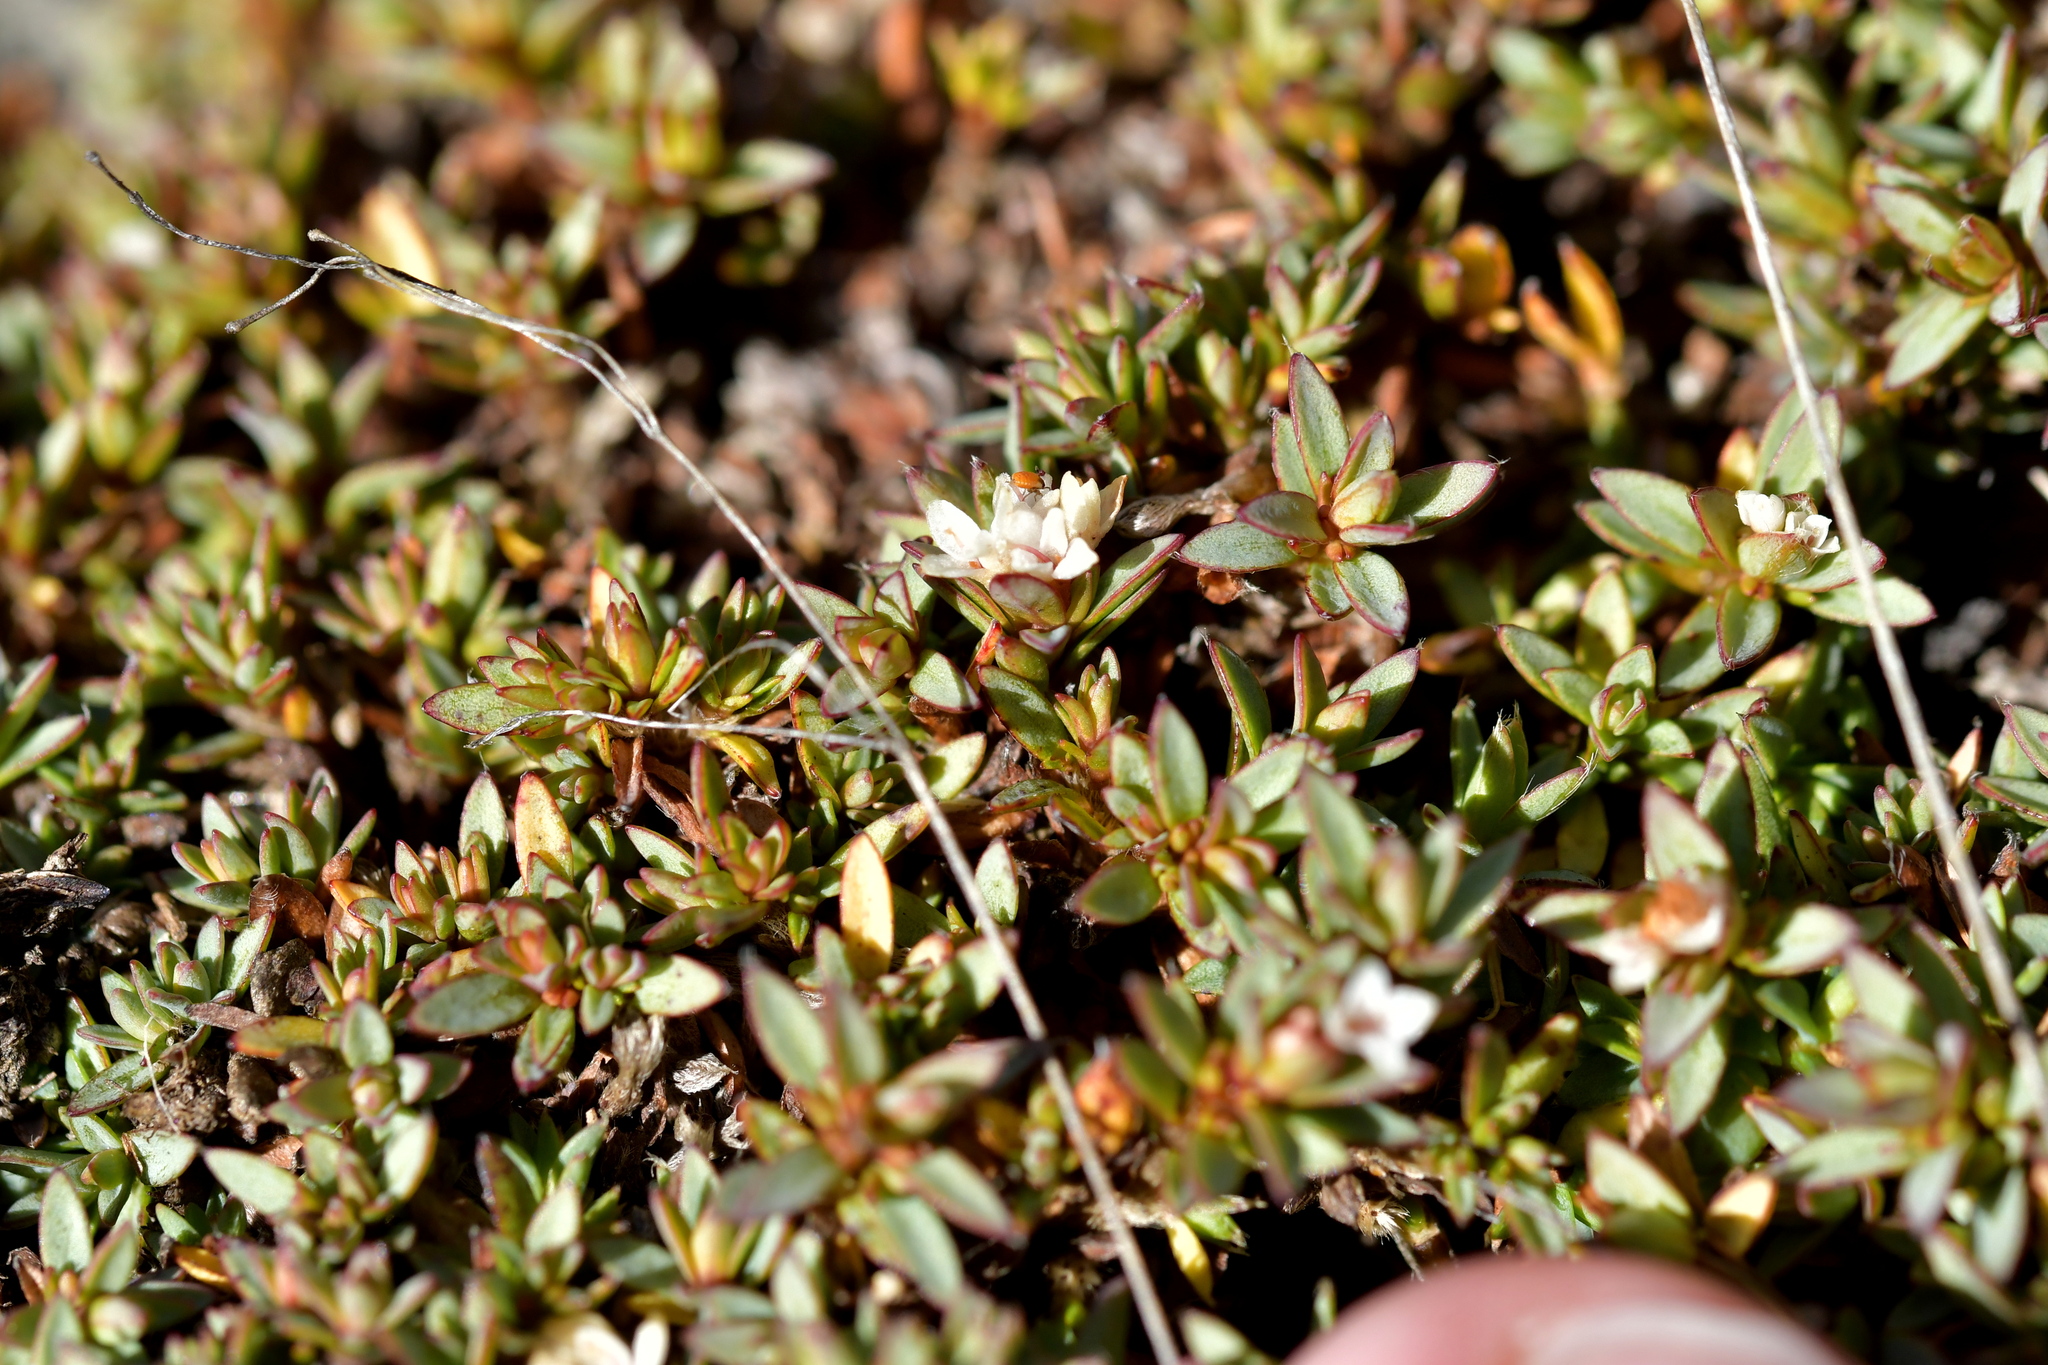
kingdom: Plantae
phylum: Tracheophyta
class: Magnoliopsida
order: Malvales
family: Thymelaeaceae
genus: Pimelea
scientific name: Pimelea notia
